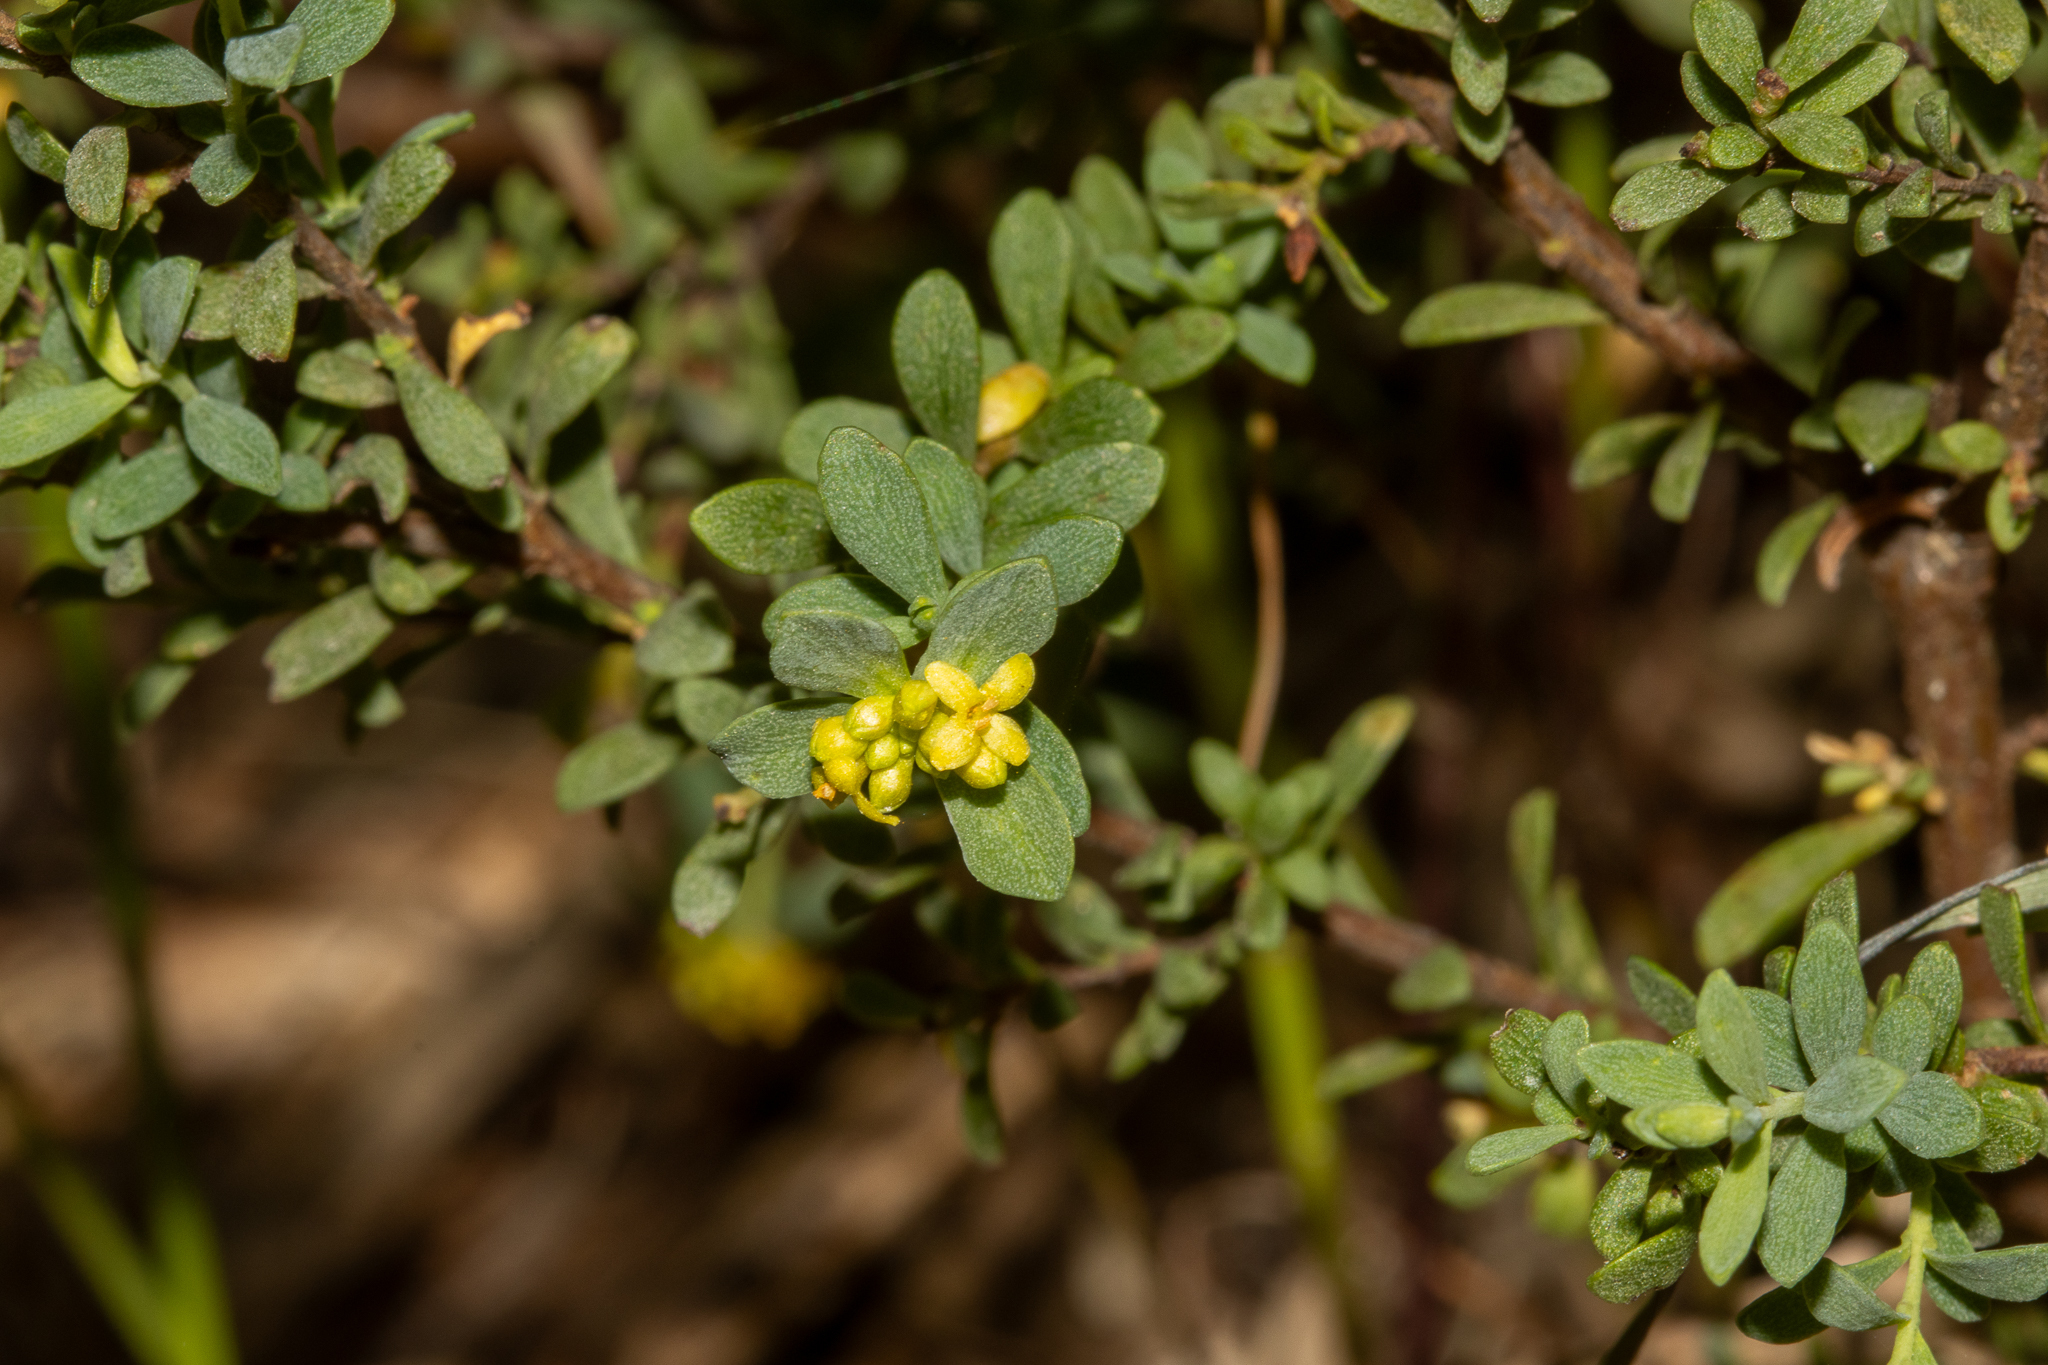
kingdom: Plantae
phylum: Tracheophyta
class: Magnoliopsida
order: Malvales
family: Thymelaeaceae
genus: Pimelea
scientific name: Pimelea serpyllifolia
